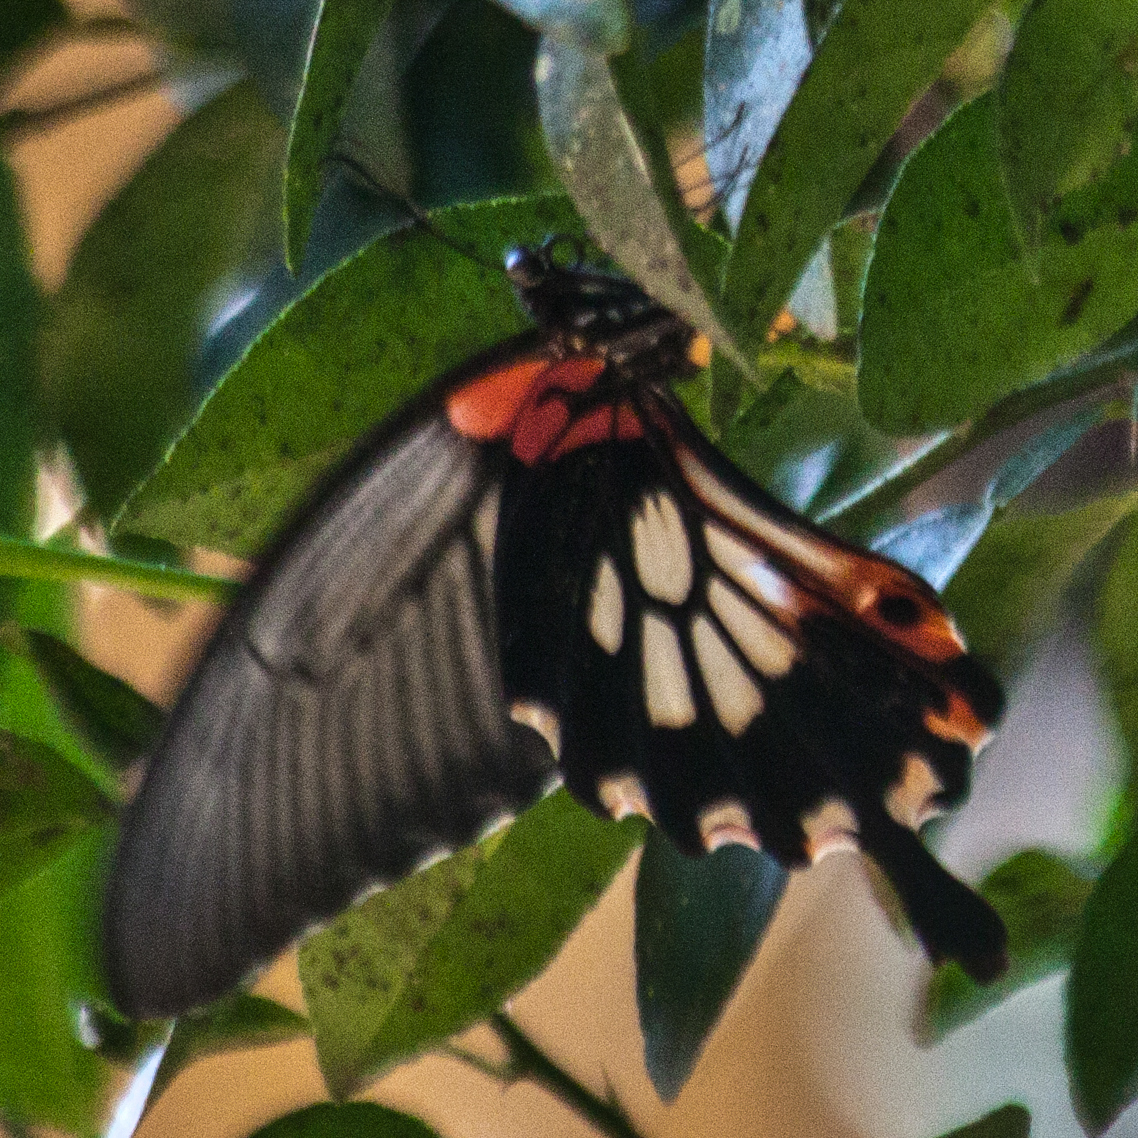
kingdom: Animalia
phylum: Arthropoda
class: Insecta
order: Lepidoptera
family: Papilionidae
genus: Papilio
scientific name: Papilio memnon
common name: Great mormon
